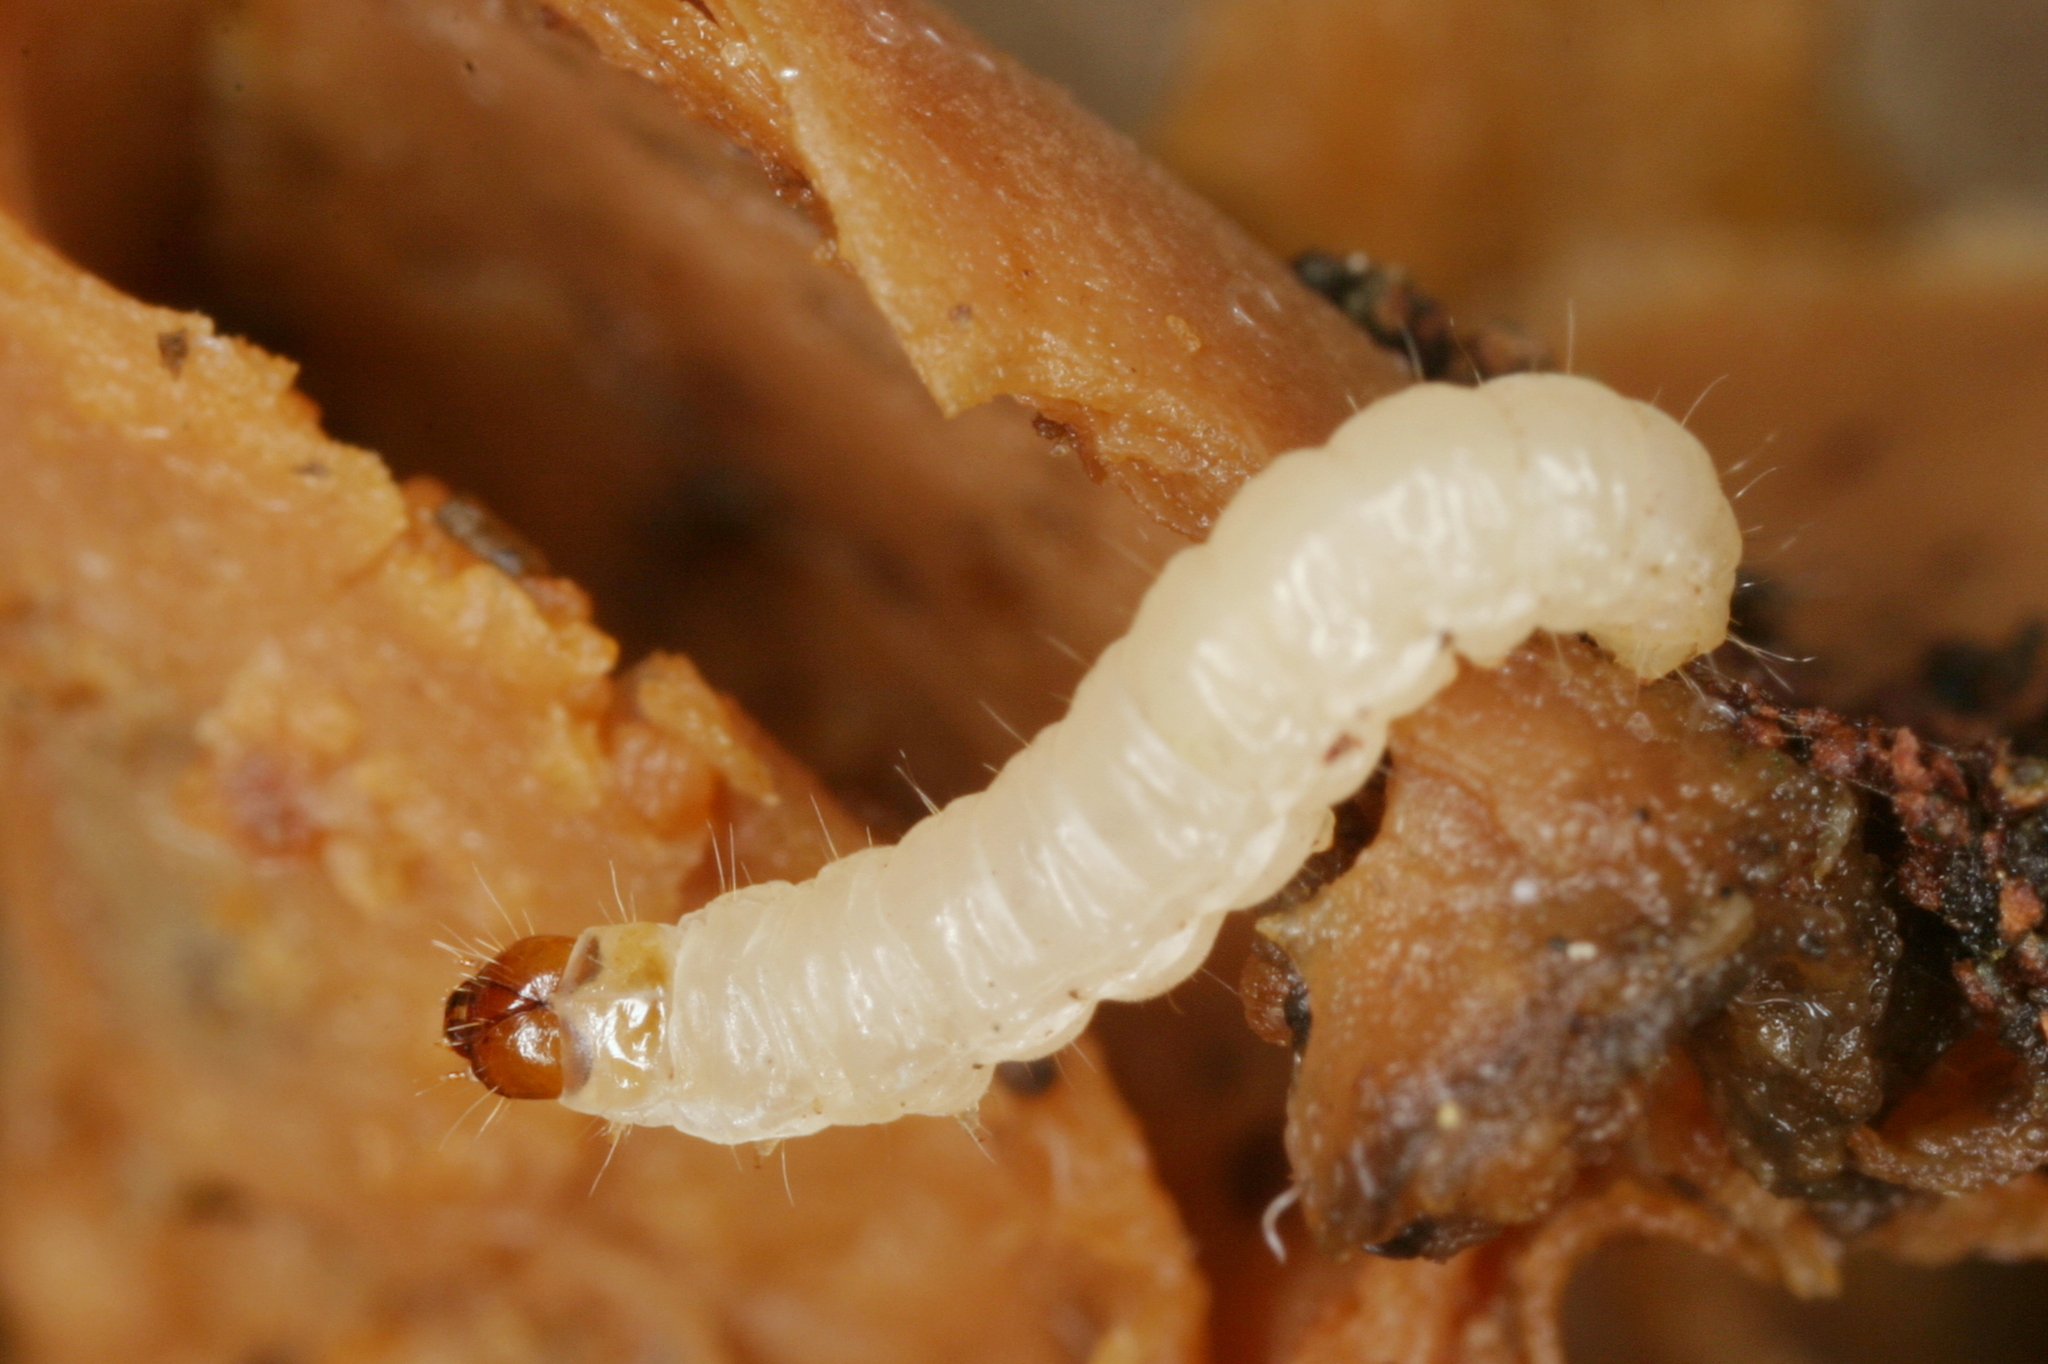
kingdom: Animalia
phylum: Arthropoda
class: Insecta
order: Lepidoptera
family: Tineidae
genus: Nemapogon
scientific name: Nemapogon granella
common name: European grain moth
